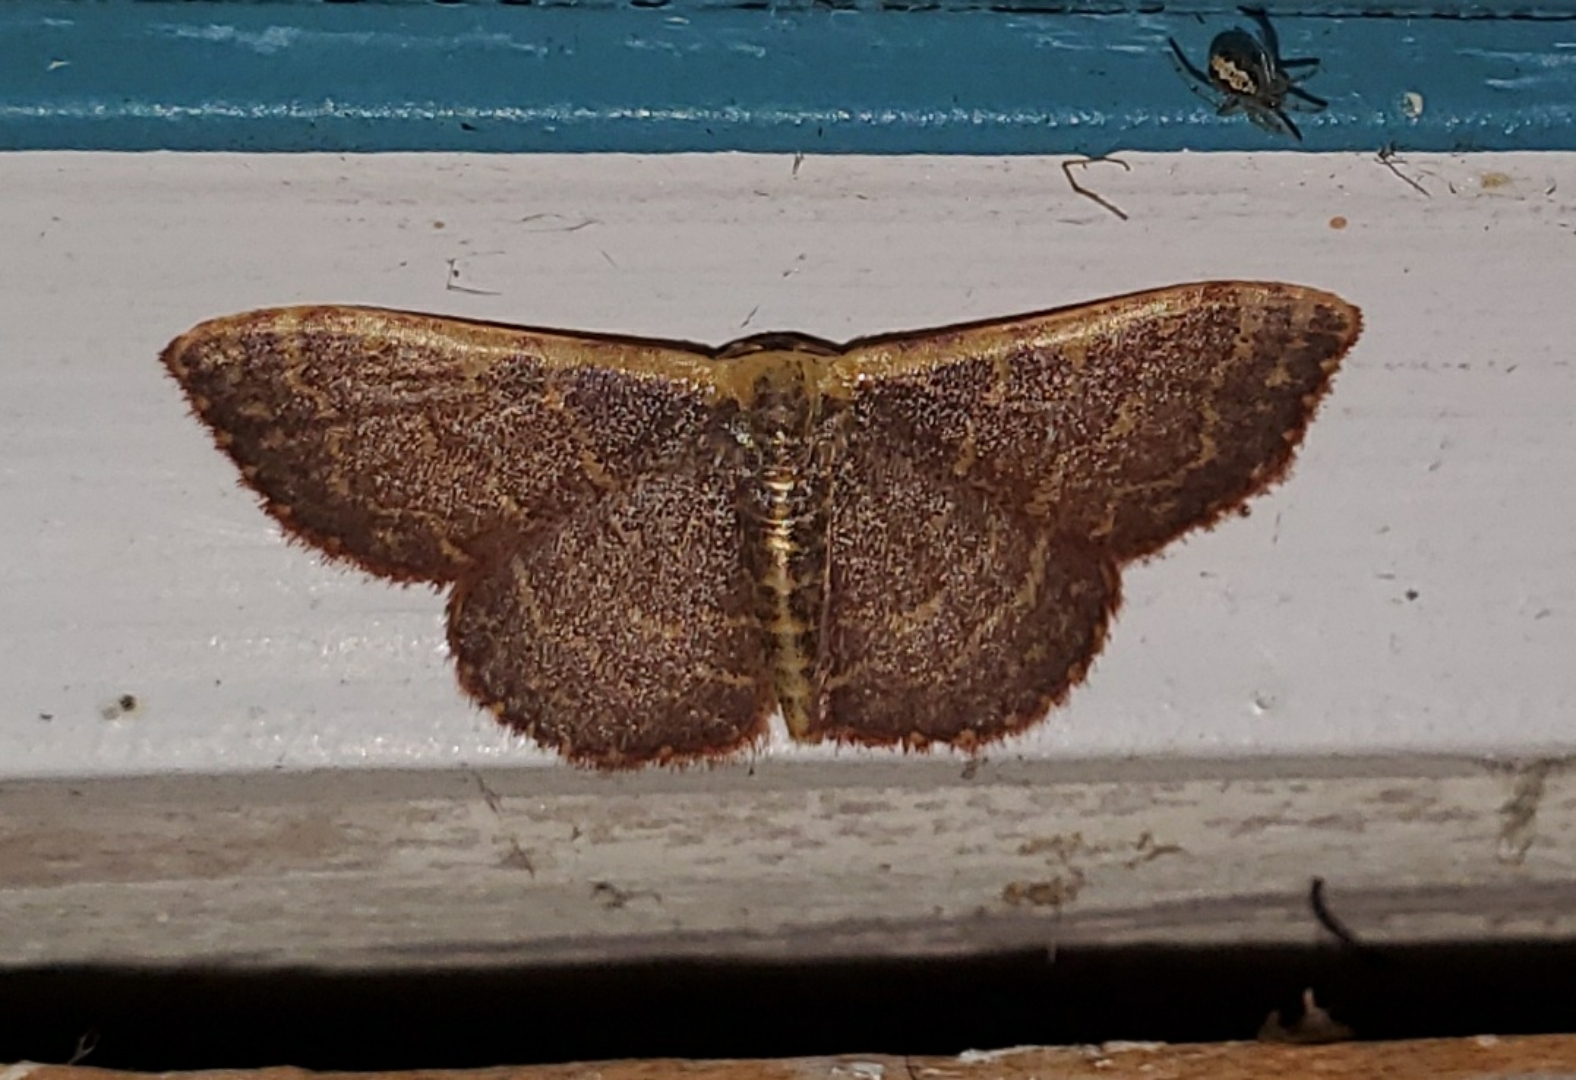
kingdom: Animalia
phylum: Arthropoda
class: Insecta
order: Lepidoptera
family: Geometridae
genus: Leptostales
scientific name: Leptostales crossii
